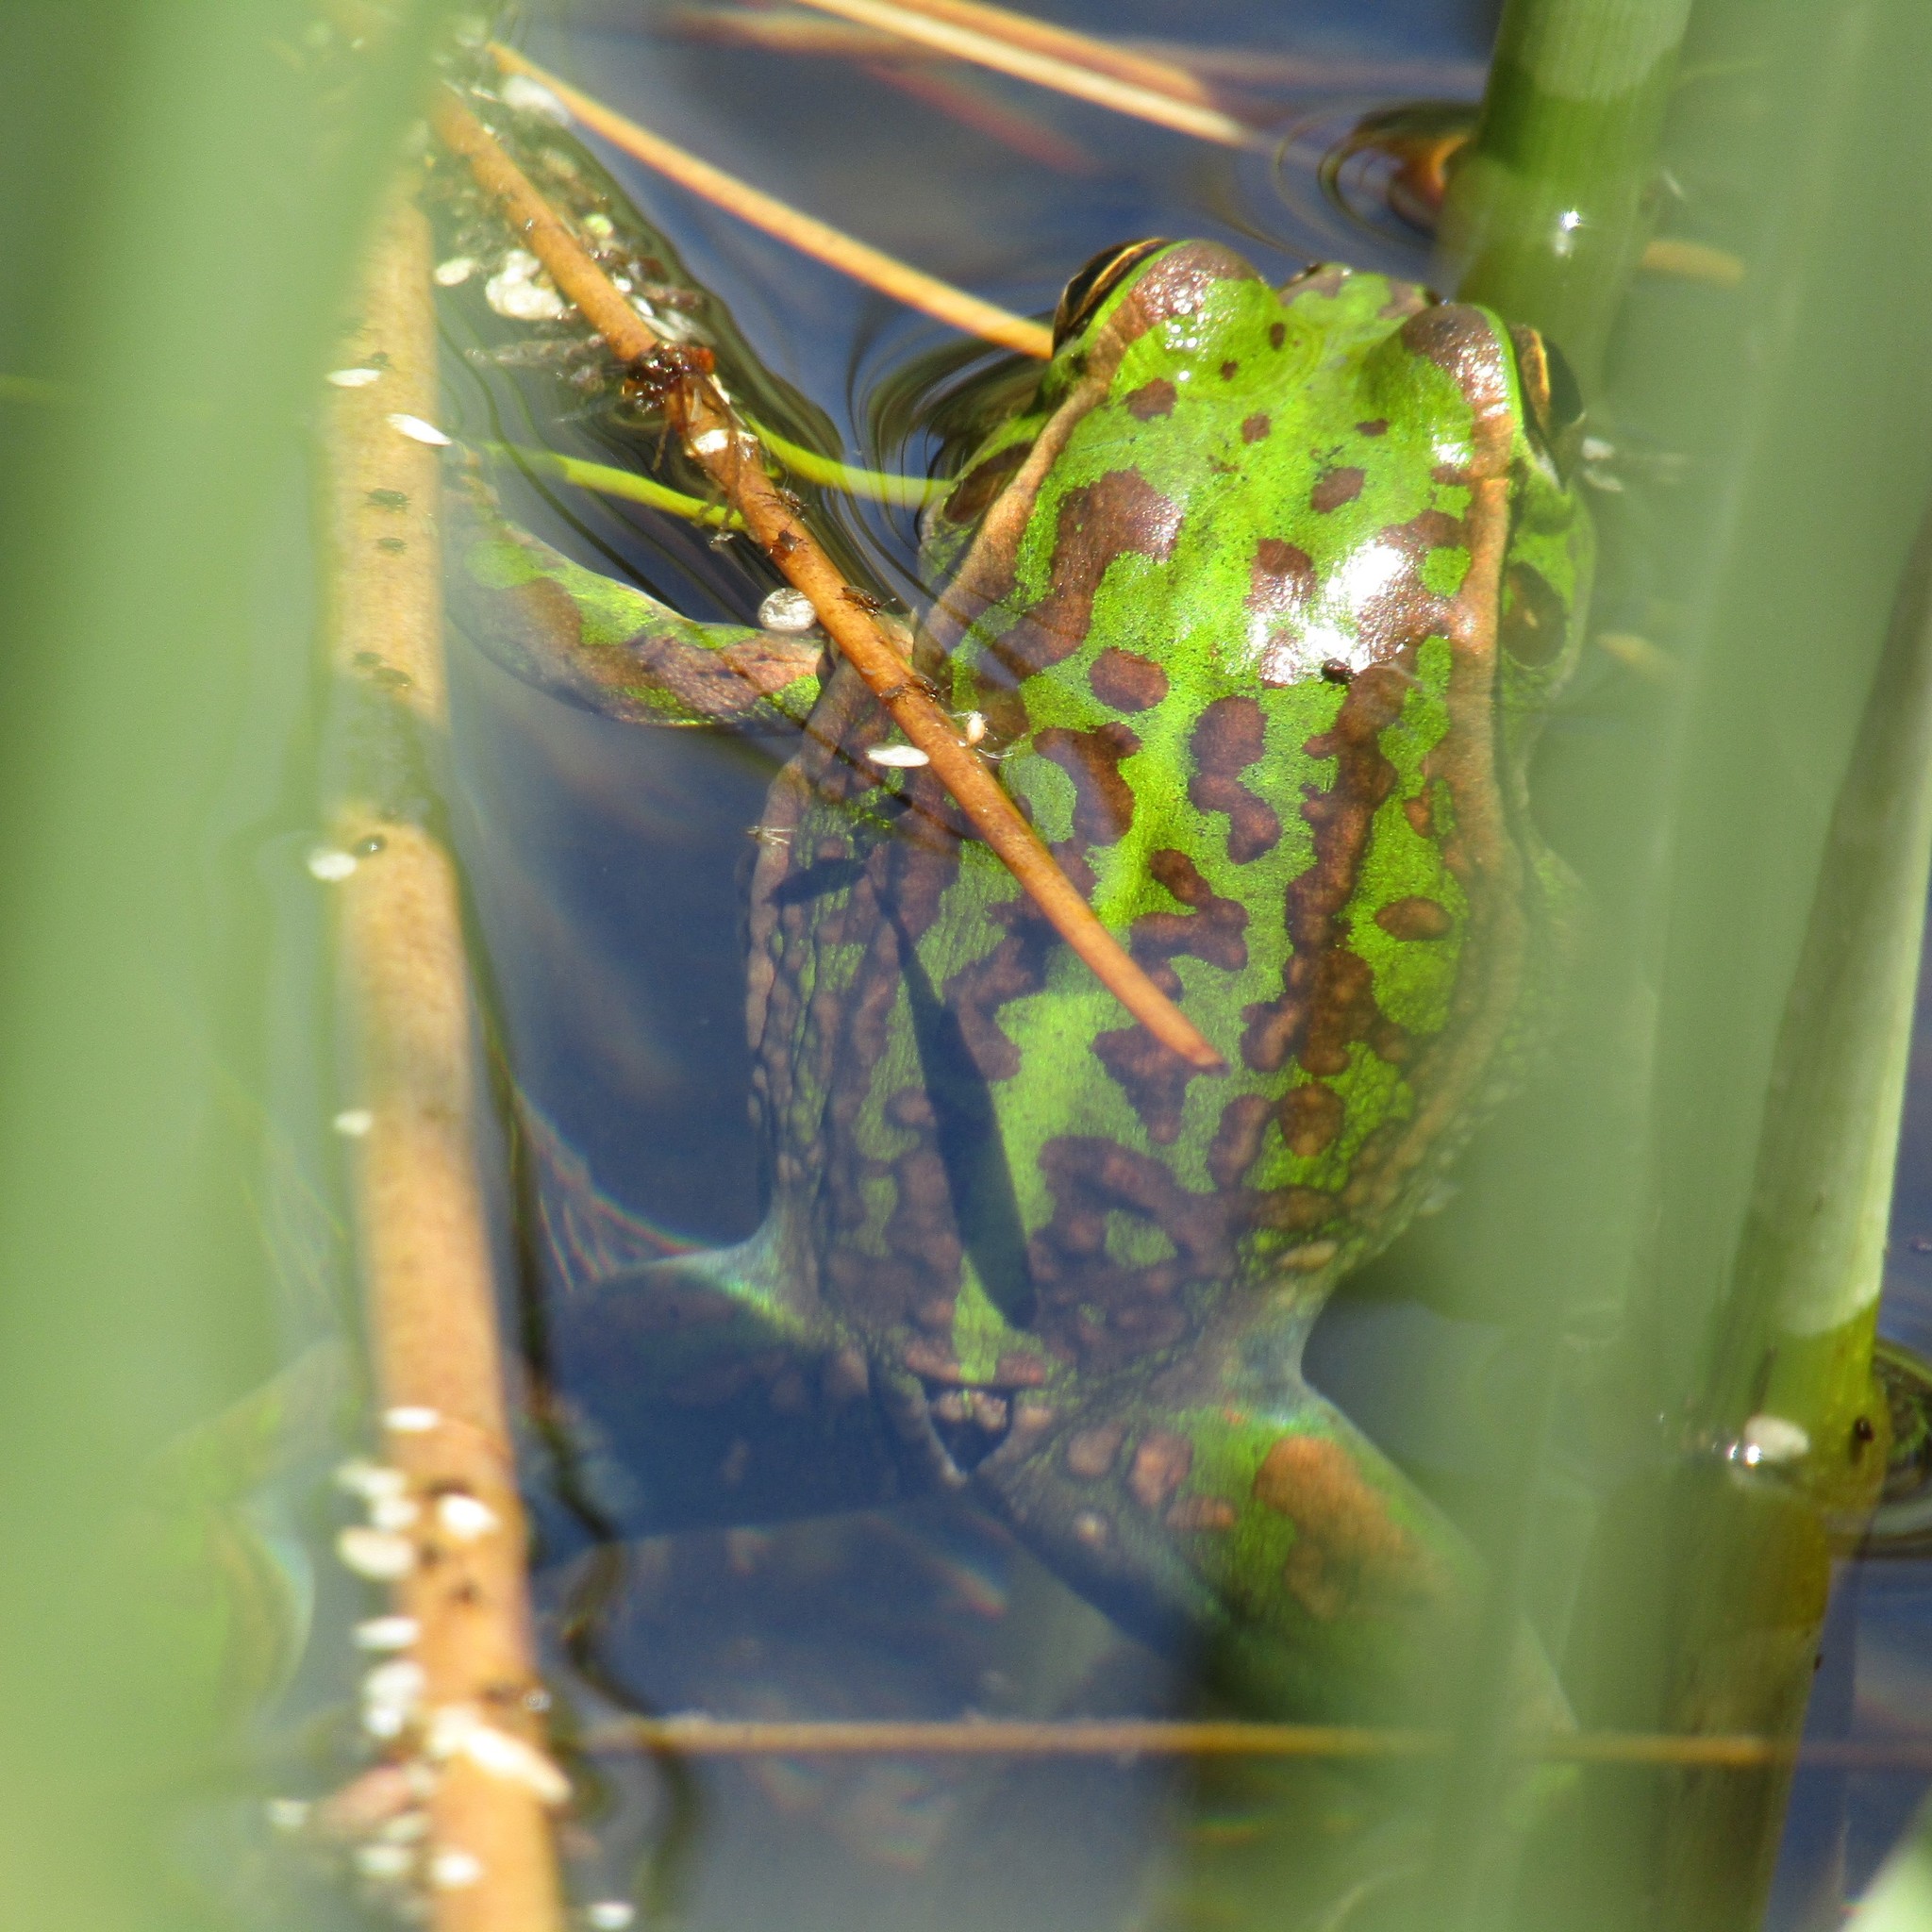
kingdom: Animalia
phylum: Chordata
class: Amphibia
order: Anura
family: Pelodryadidae
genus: Ranoidea
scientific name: Ranoidea raniformis
